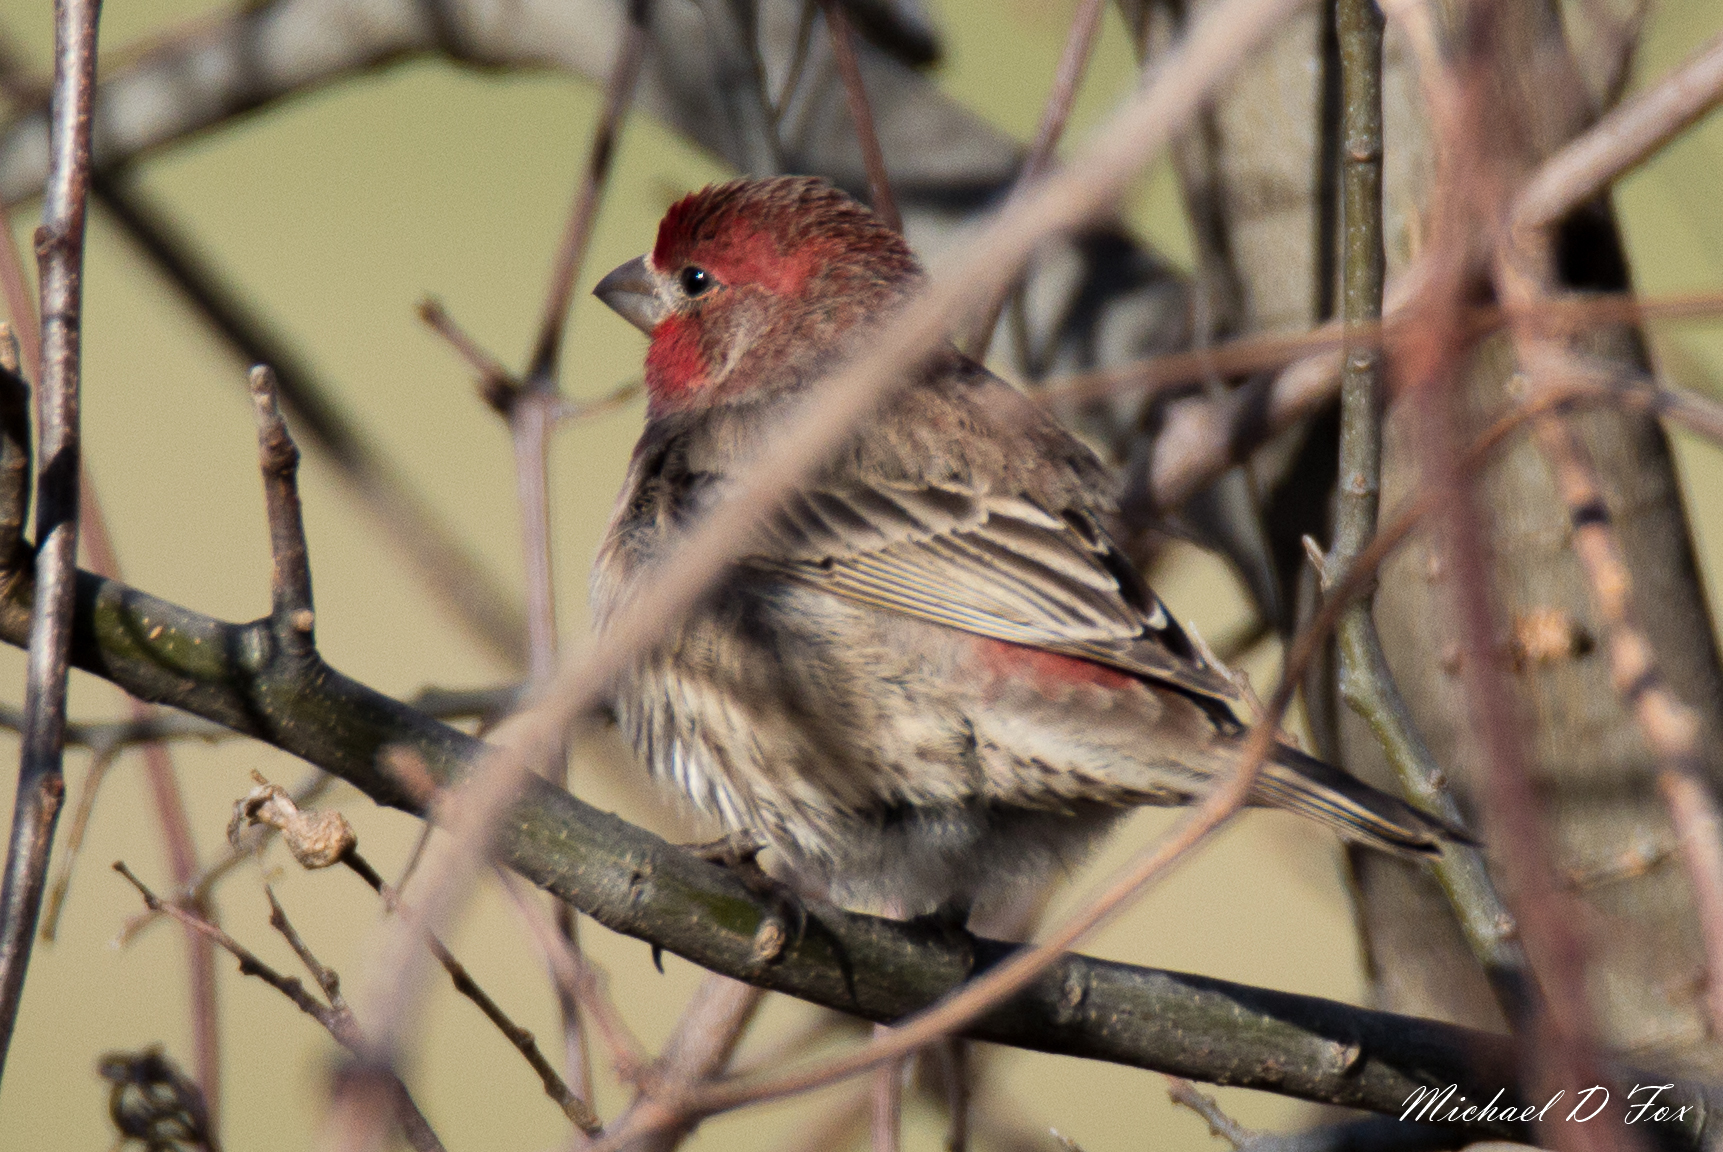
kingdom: Animalia
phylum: Chordata
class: Aves
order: Passeriformes
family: Fringillidae
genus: Haemorhous
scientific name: Haemorhous mexicanus
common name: House finch
